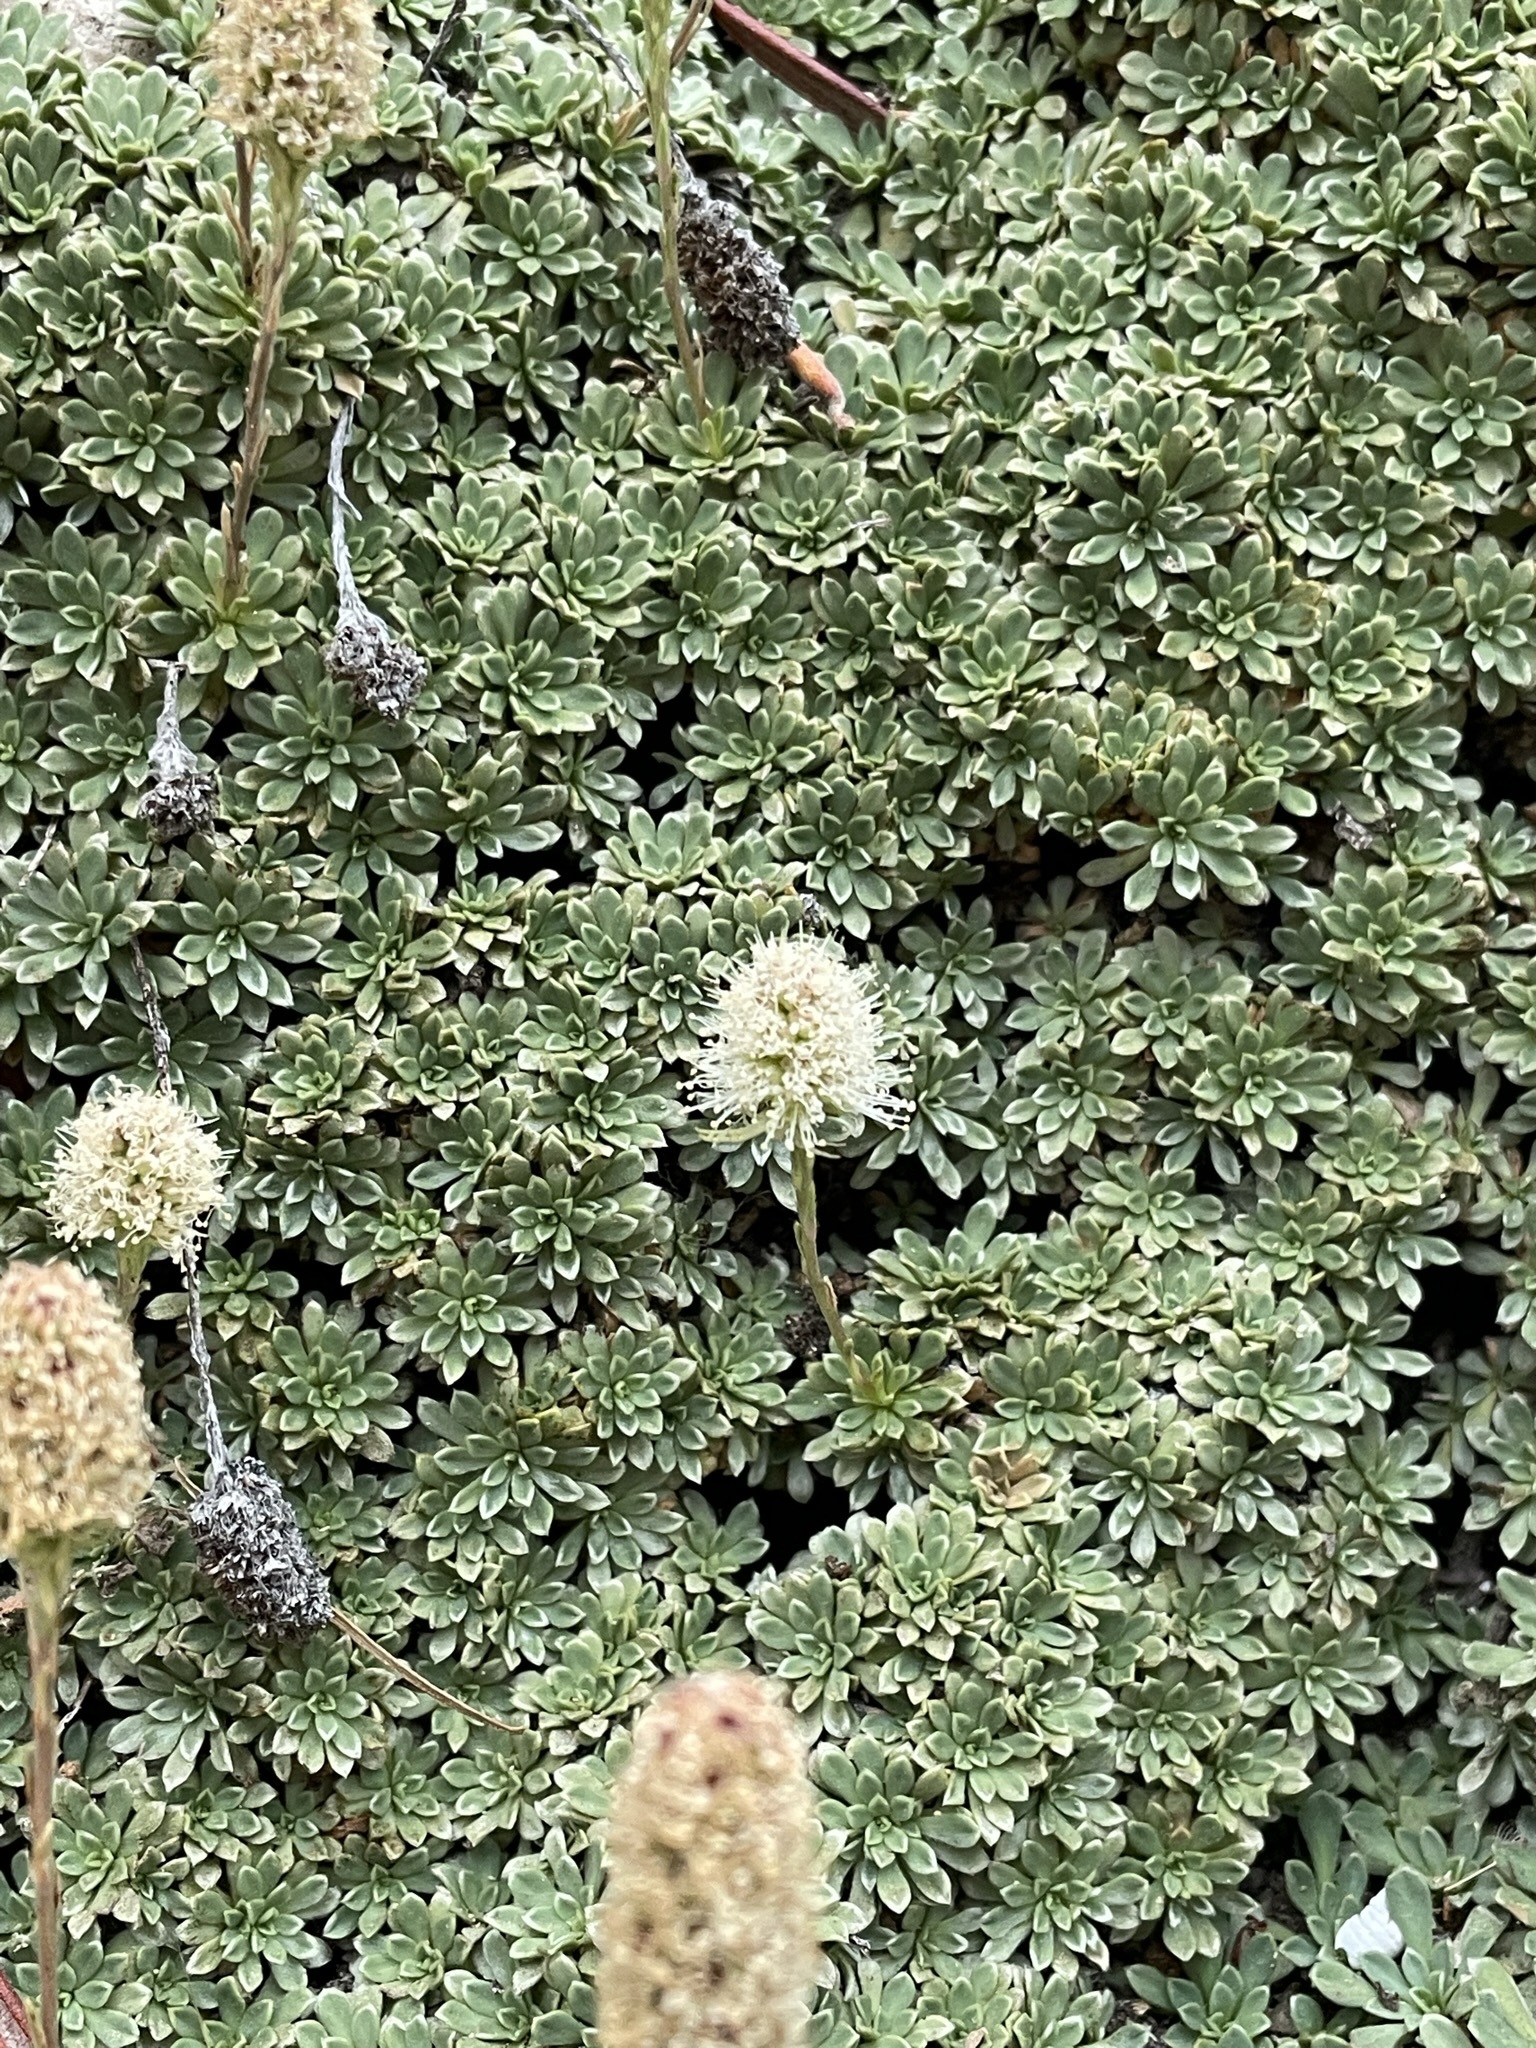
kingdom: Plantae
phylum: Tracheophyta
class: Magnoliopsida
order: Rosales
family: Rosaceae
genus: Petrophytum
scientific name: Petrophytum caespitosum
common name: Mat rockspirea
